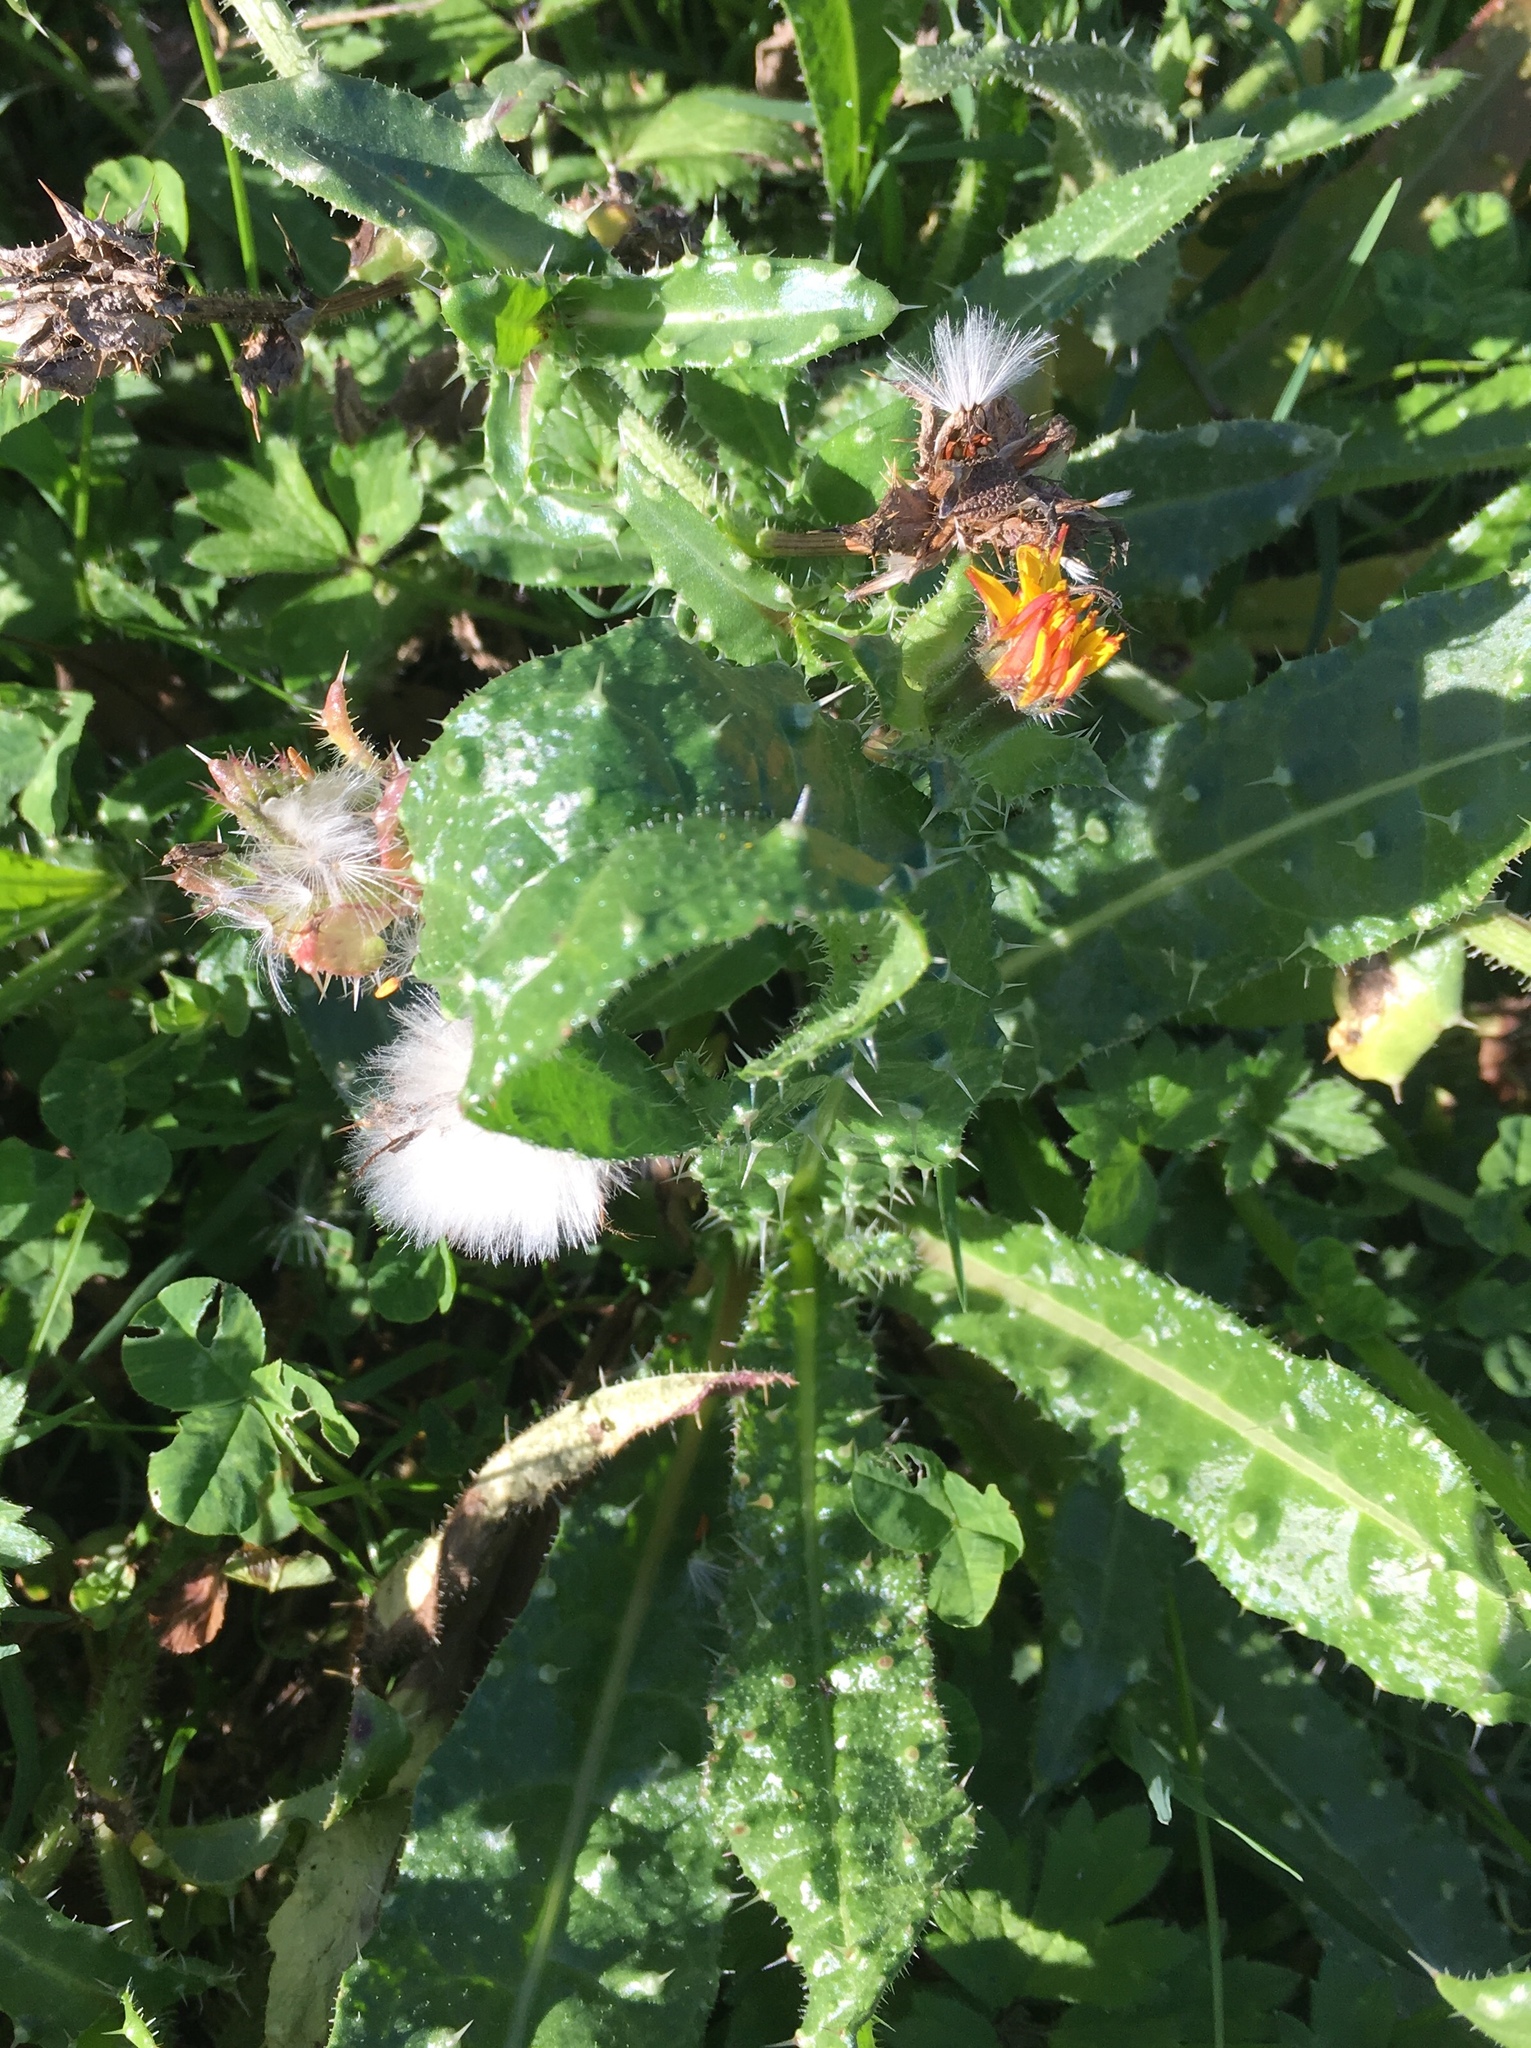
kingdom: Plantae
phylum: Tracheophyta
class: Magnoliopsida
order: Asterales
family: Asteraceae
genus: Helminthotheca
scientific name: Helminthotheca echioides
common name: Ox-tongue
